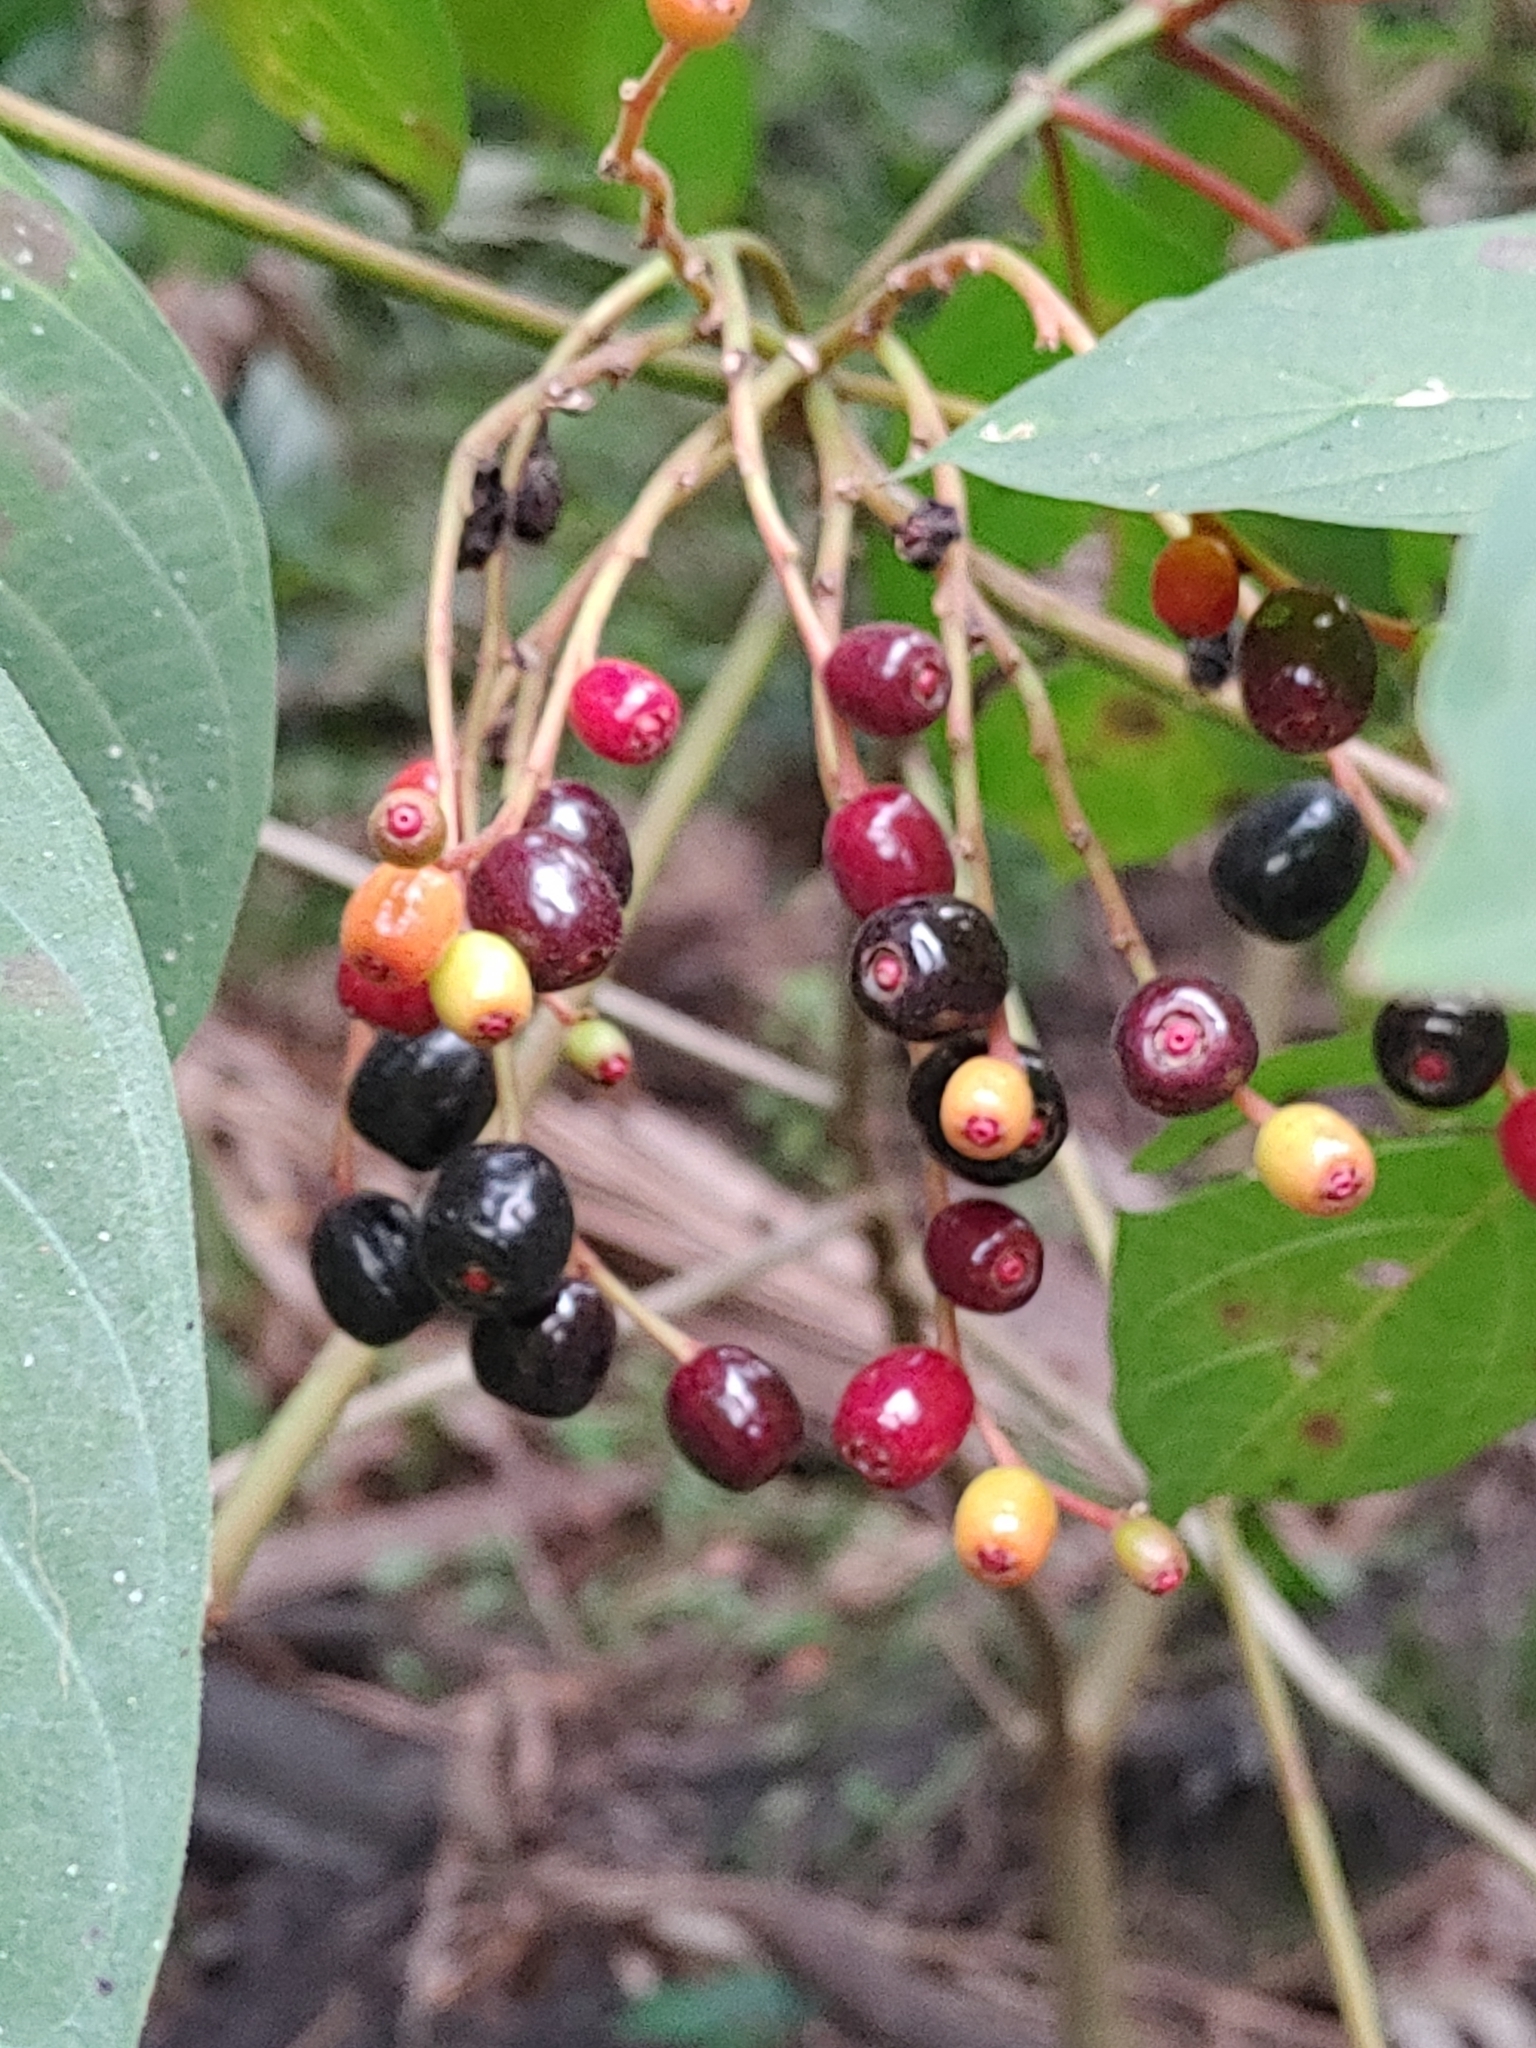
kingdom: Plantae
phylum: Tracheophyta
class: Magnoliopsida
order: Gentianales
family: Rubiaceae
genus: Hamelia
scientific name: Hamelia patens
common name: Redhead
